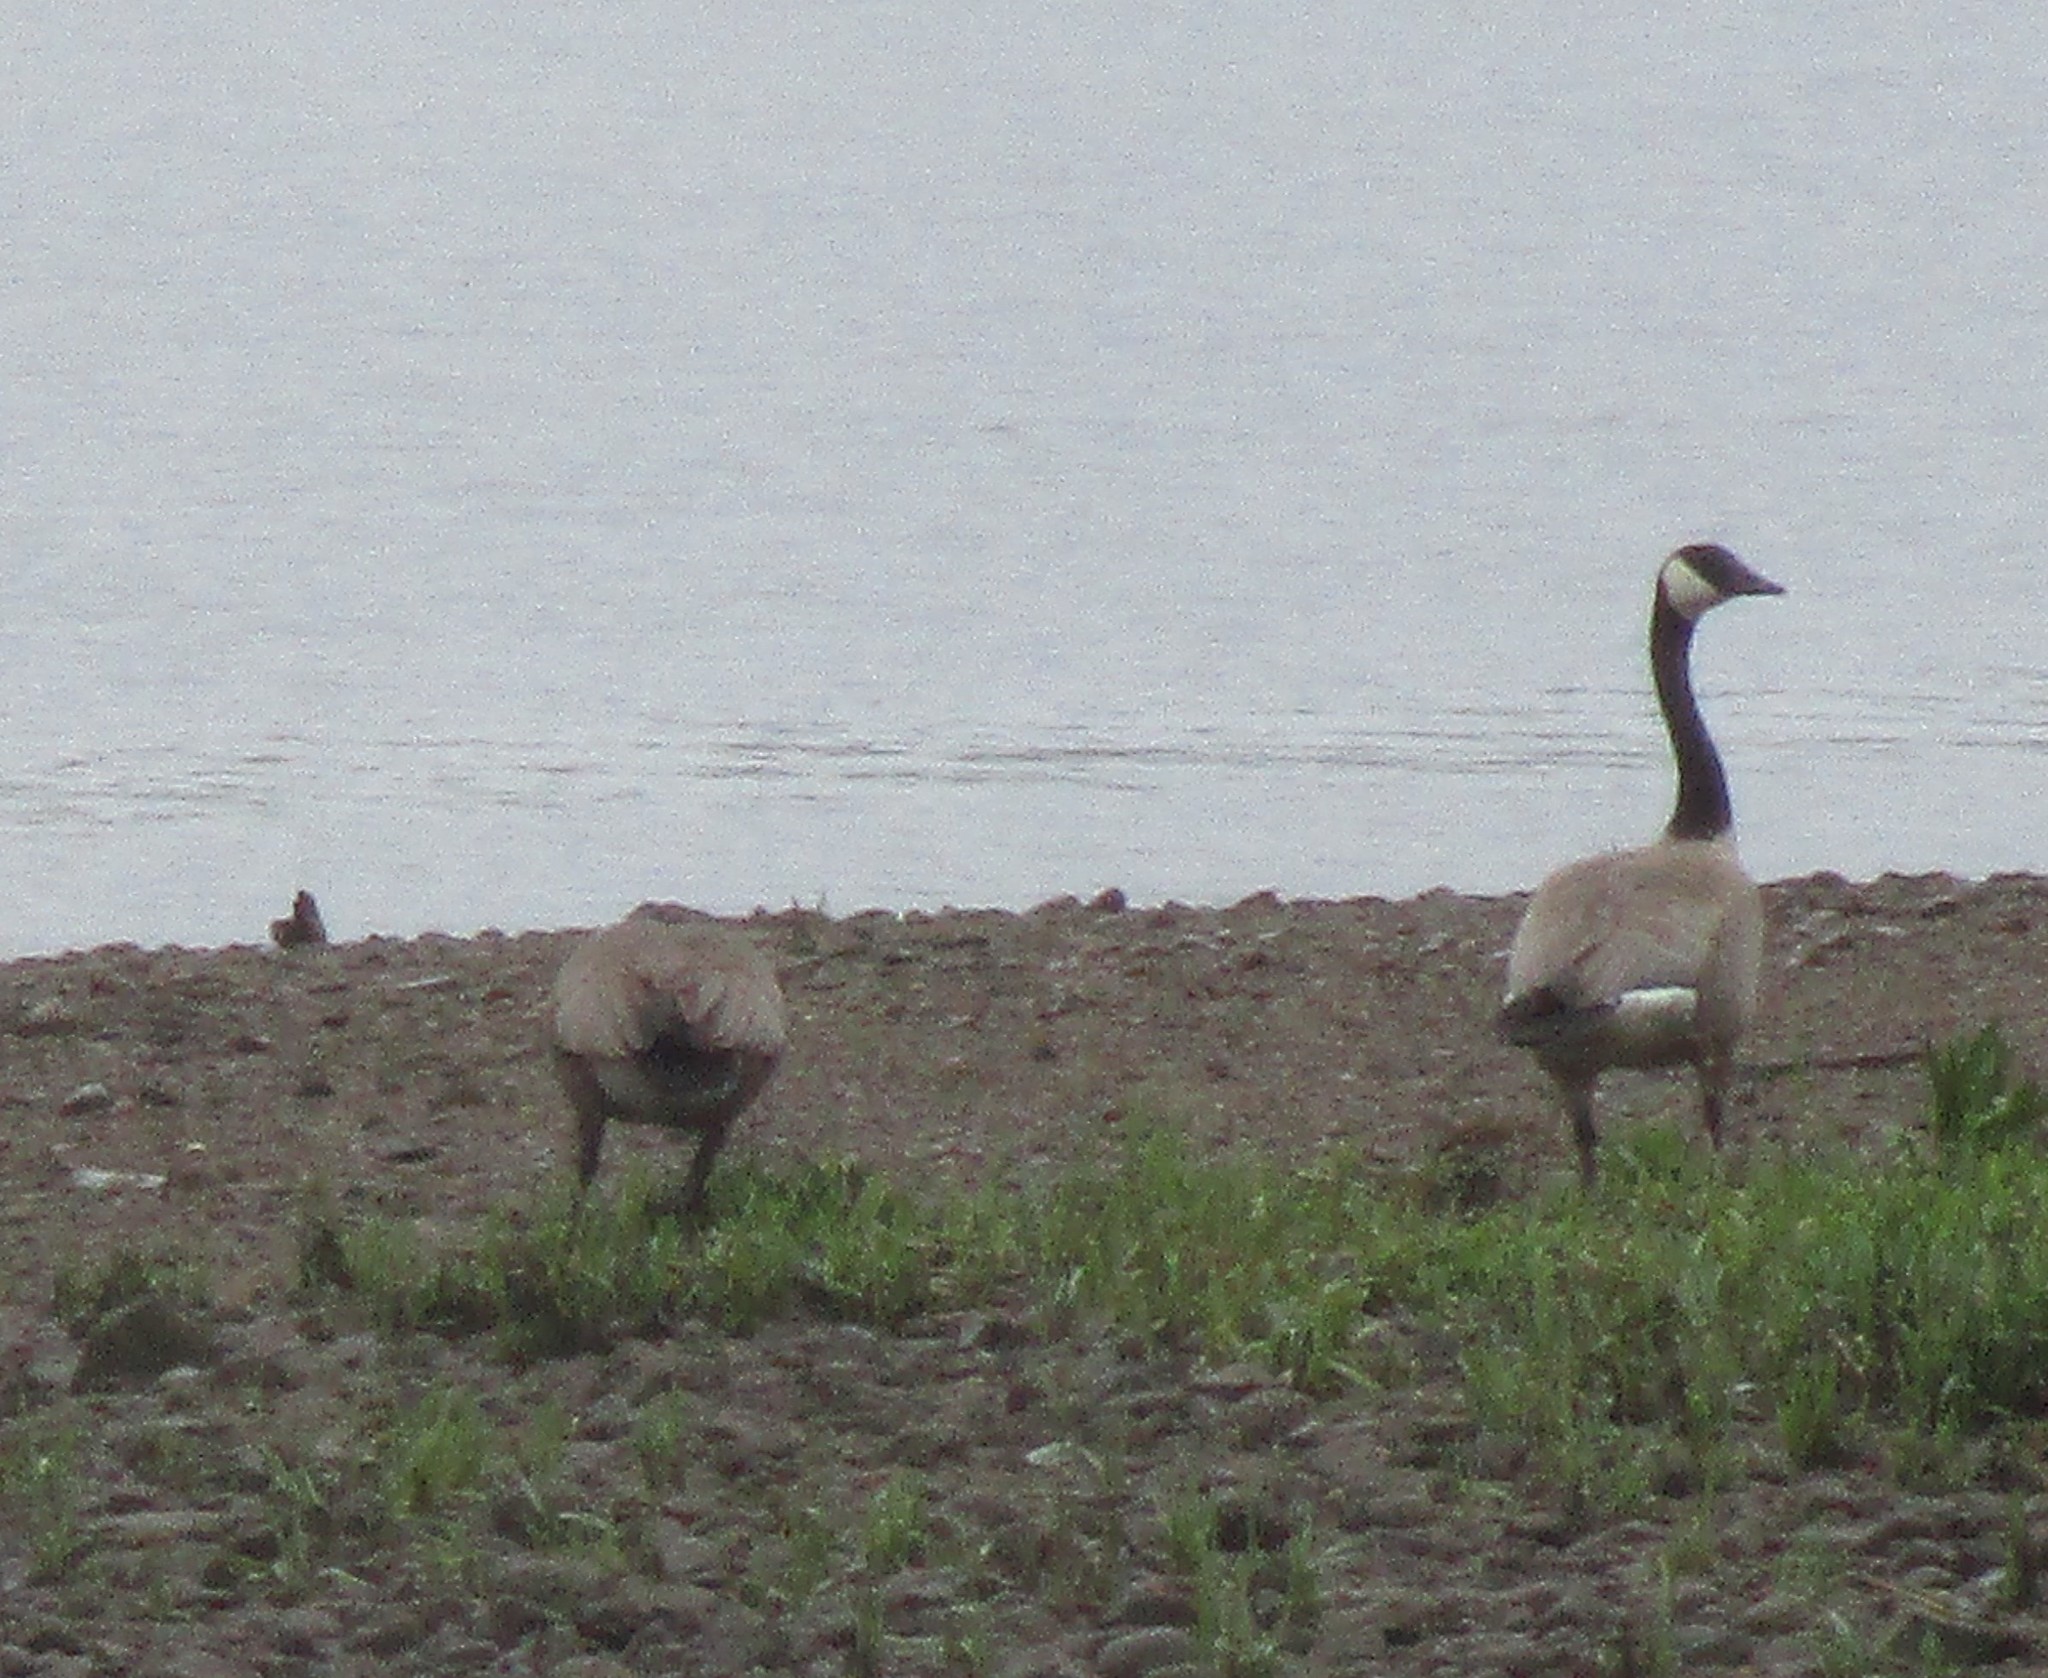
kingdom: Animalia
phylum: Chordata
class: Aves
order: Anseriformes
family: Anatidae
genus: Branta
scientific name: Branta canadensis
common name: Canada goose
